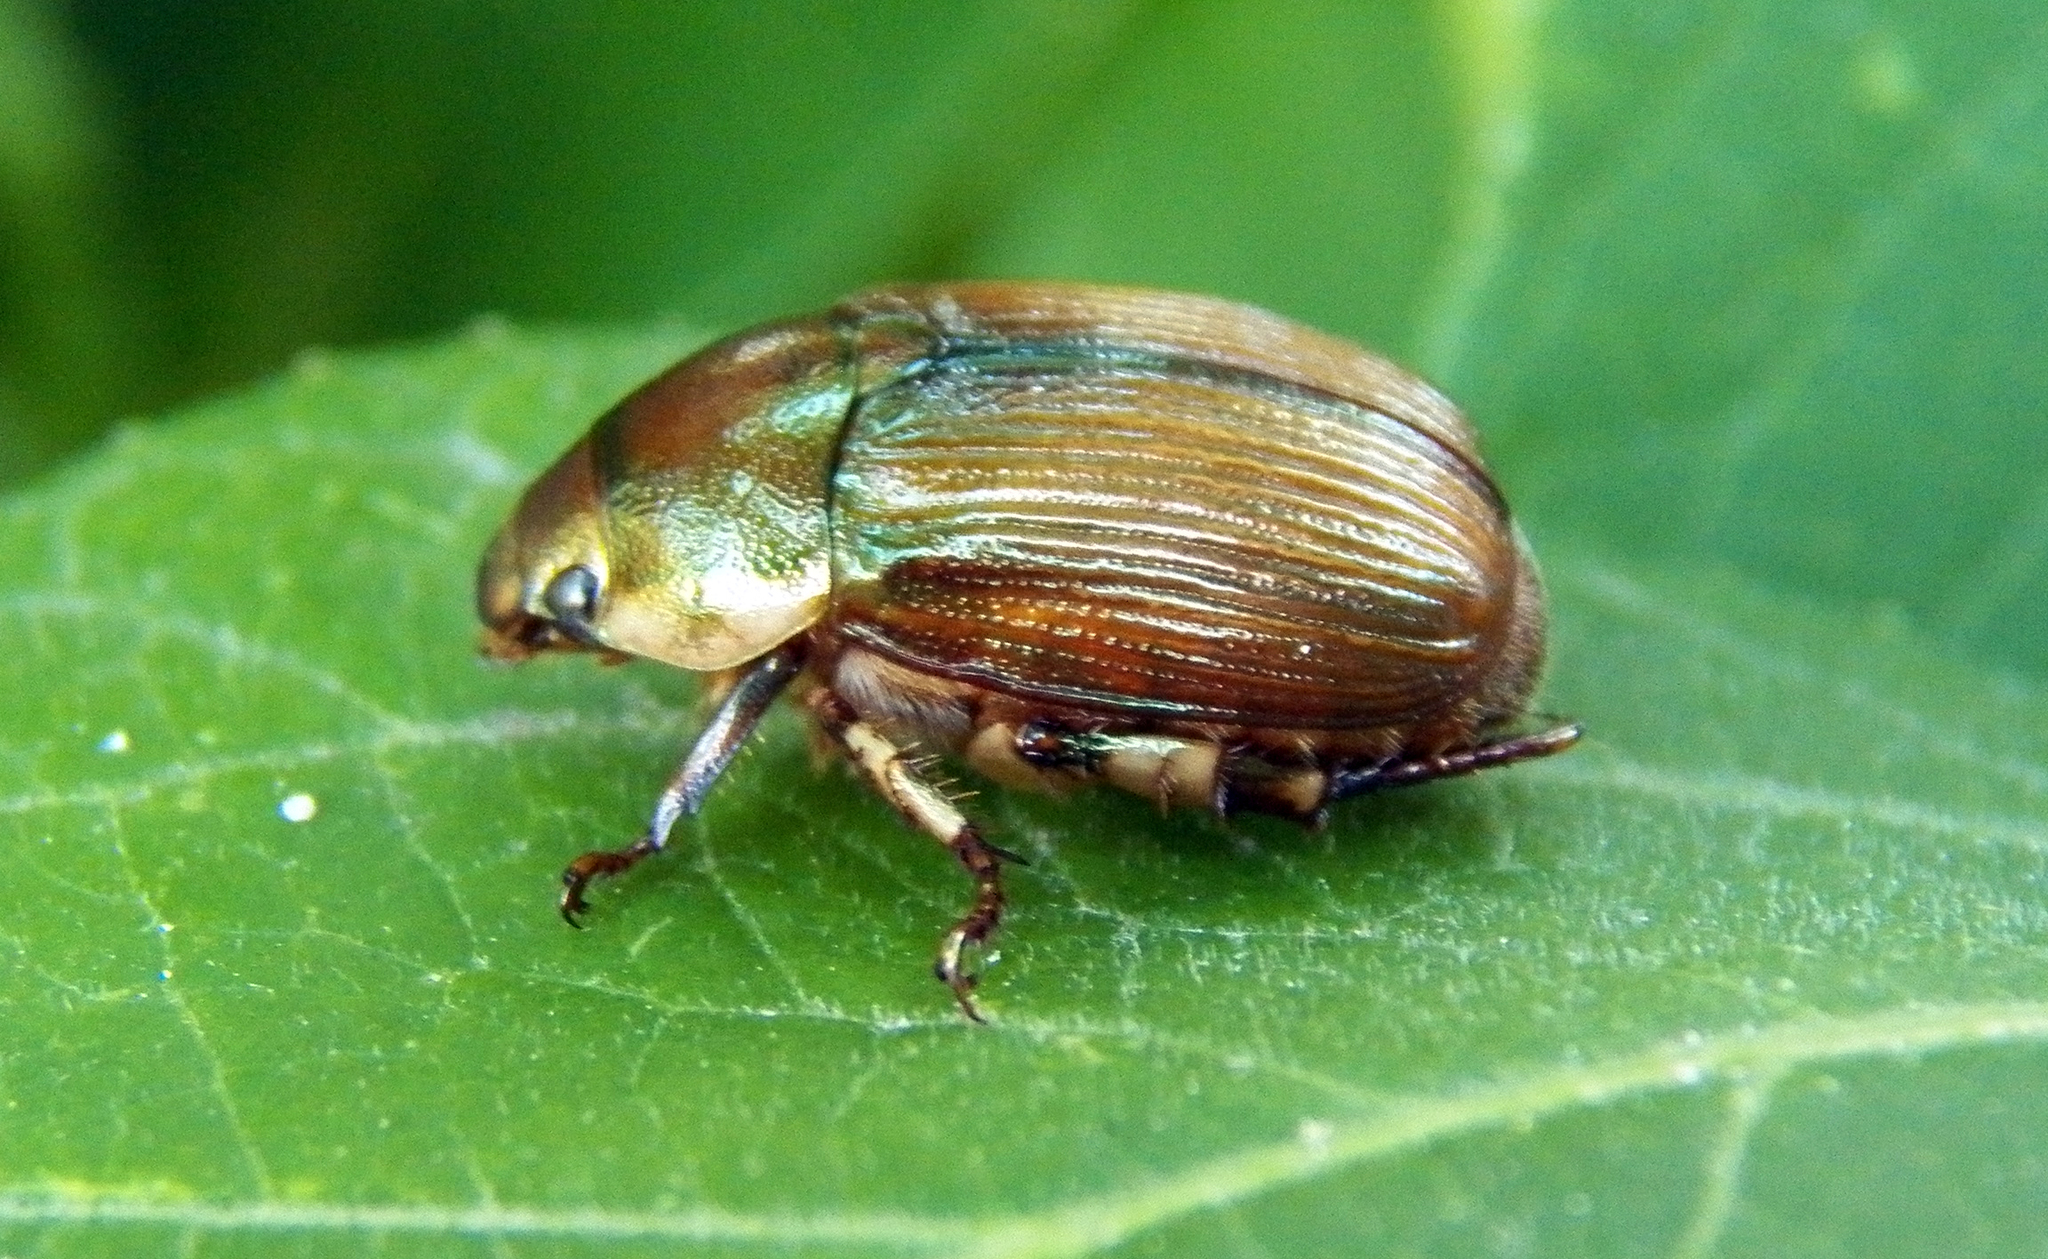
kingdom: Animalia
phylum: Arthropoda
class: Insecta
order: Coleoptera
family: Scarabaeidae
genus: Callistethus
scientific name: Callistethus marginatus
